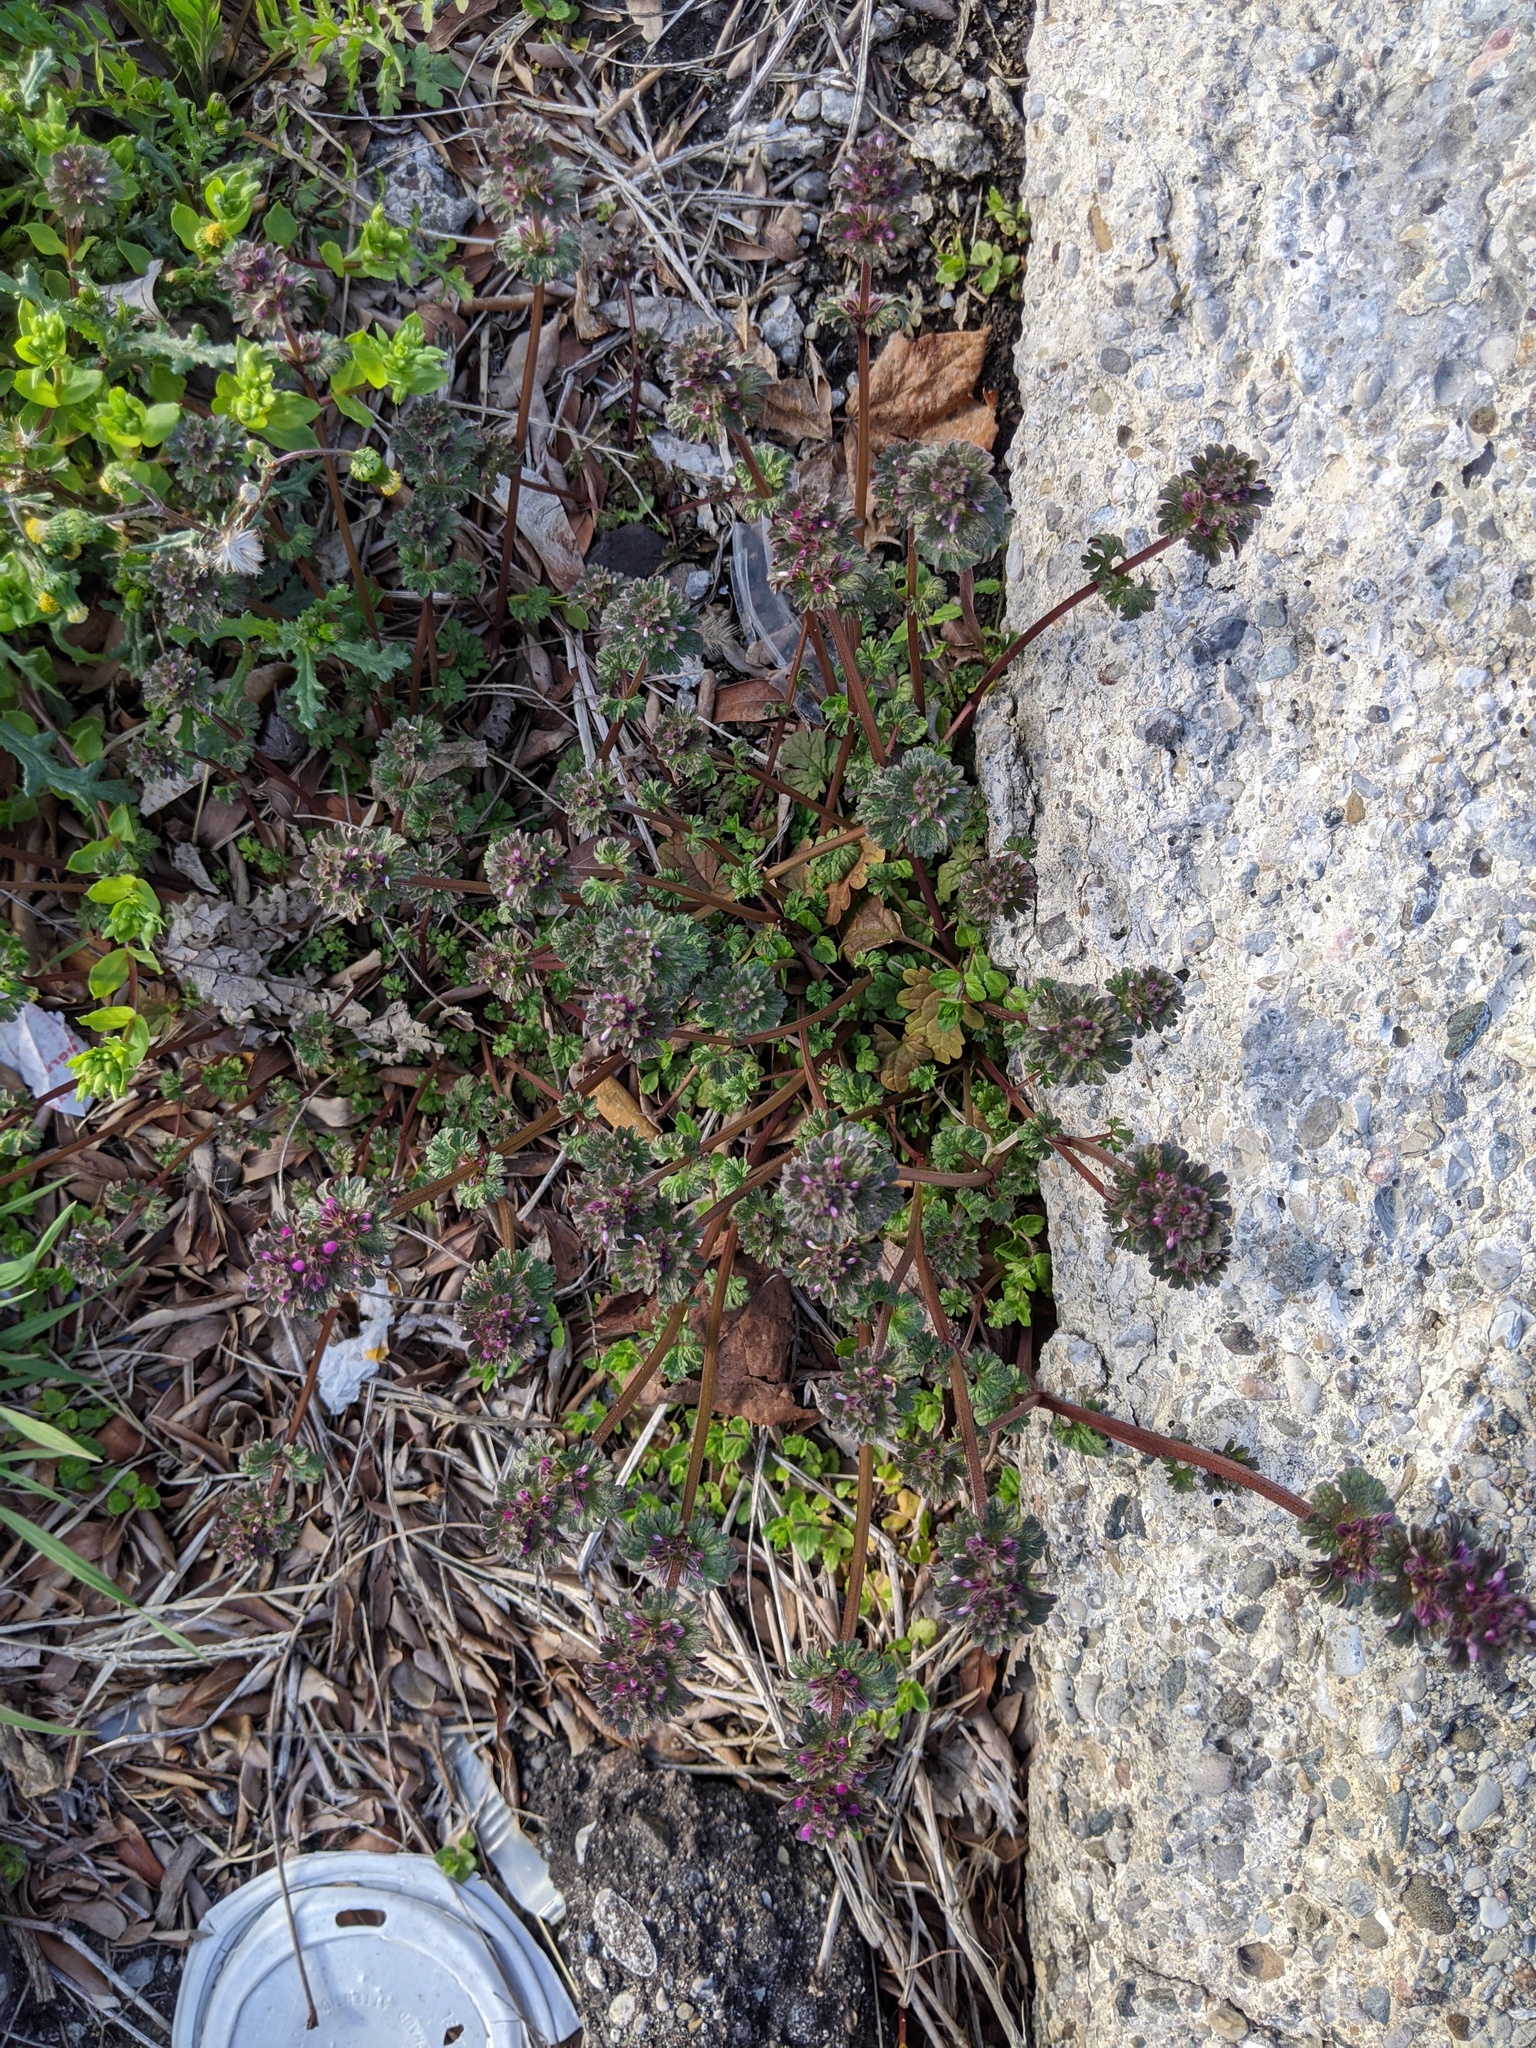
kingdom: Plantae
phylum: Tracheophyta
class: Magnoliopsida
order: Lamiales
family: Lamiaceae
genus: Lamium
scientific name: Lamium amplexicaule
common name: Henbit dead-nettle
